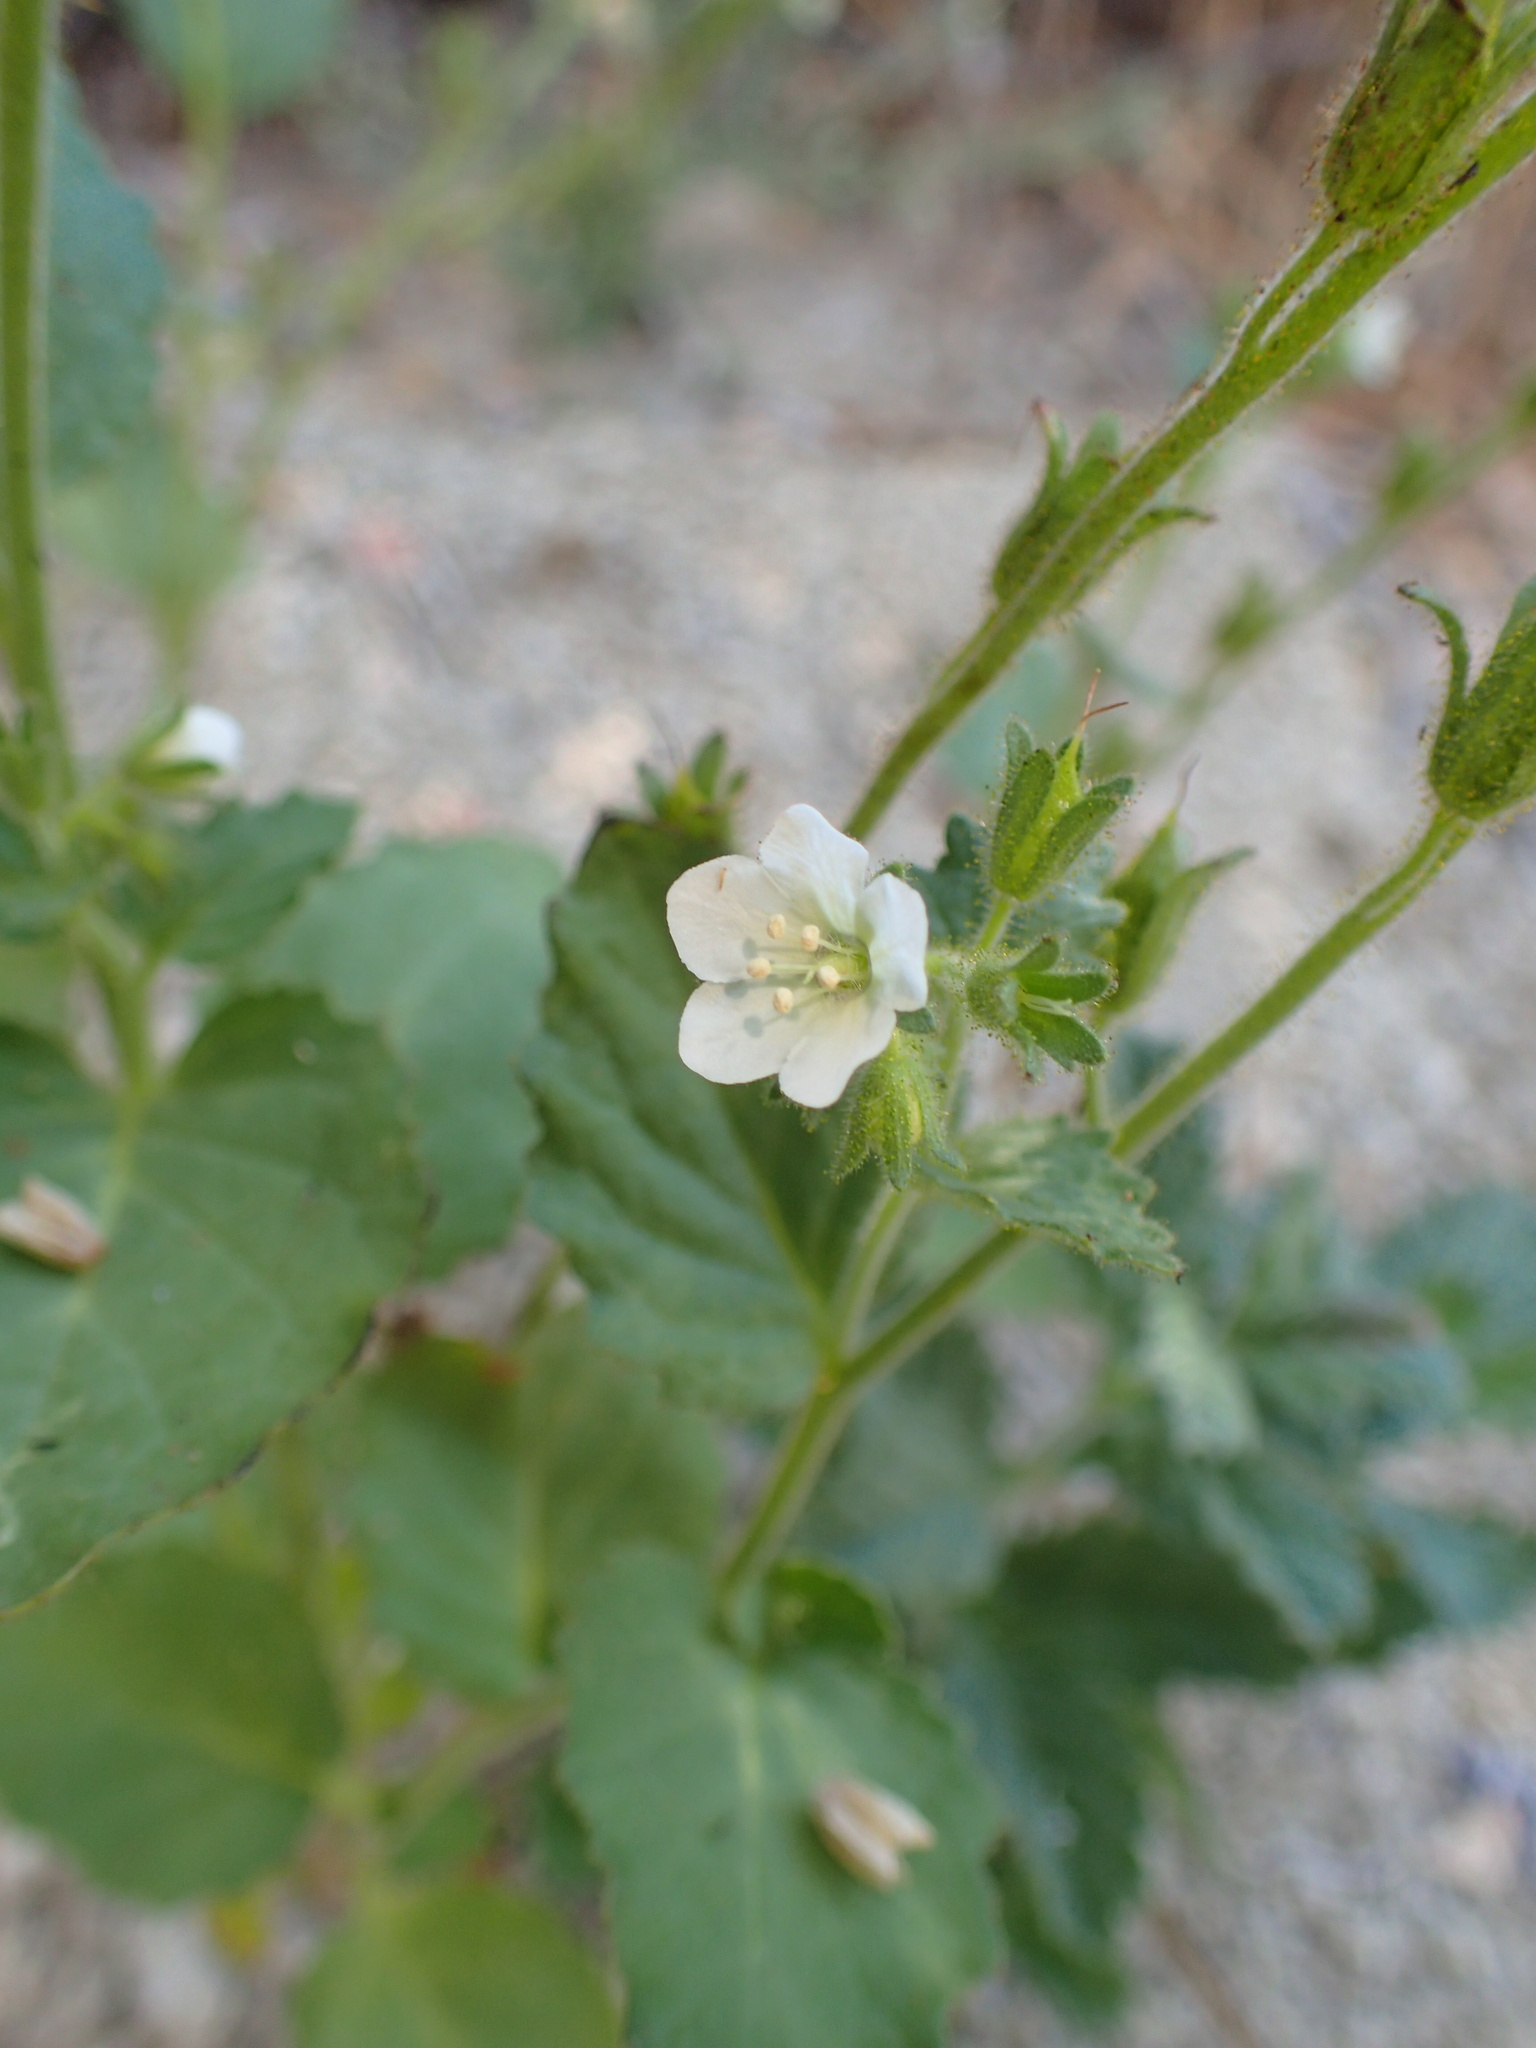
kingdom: Plantae
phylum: Tracheophyta
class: Magnoliopsida
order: Boraginales
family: Hydrophyllaceae
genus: Phacelia
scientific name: Phacelia viscida
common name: Sticky phacelia
